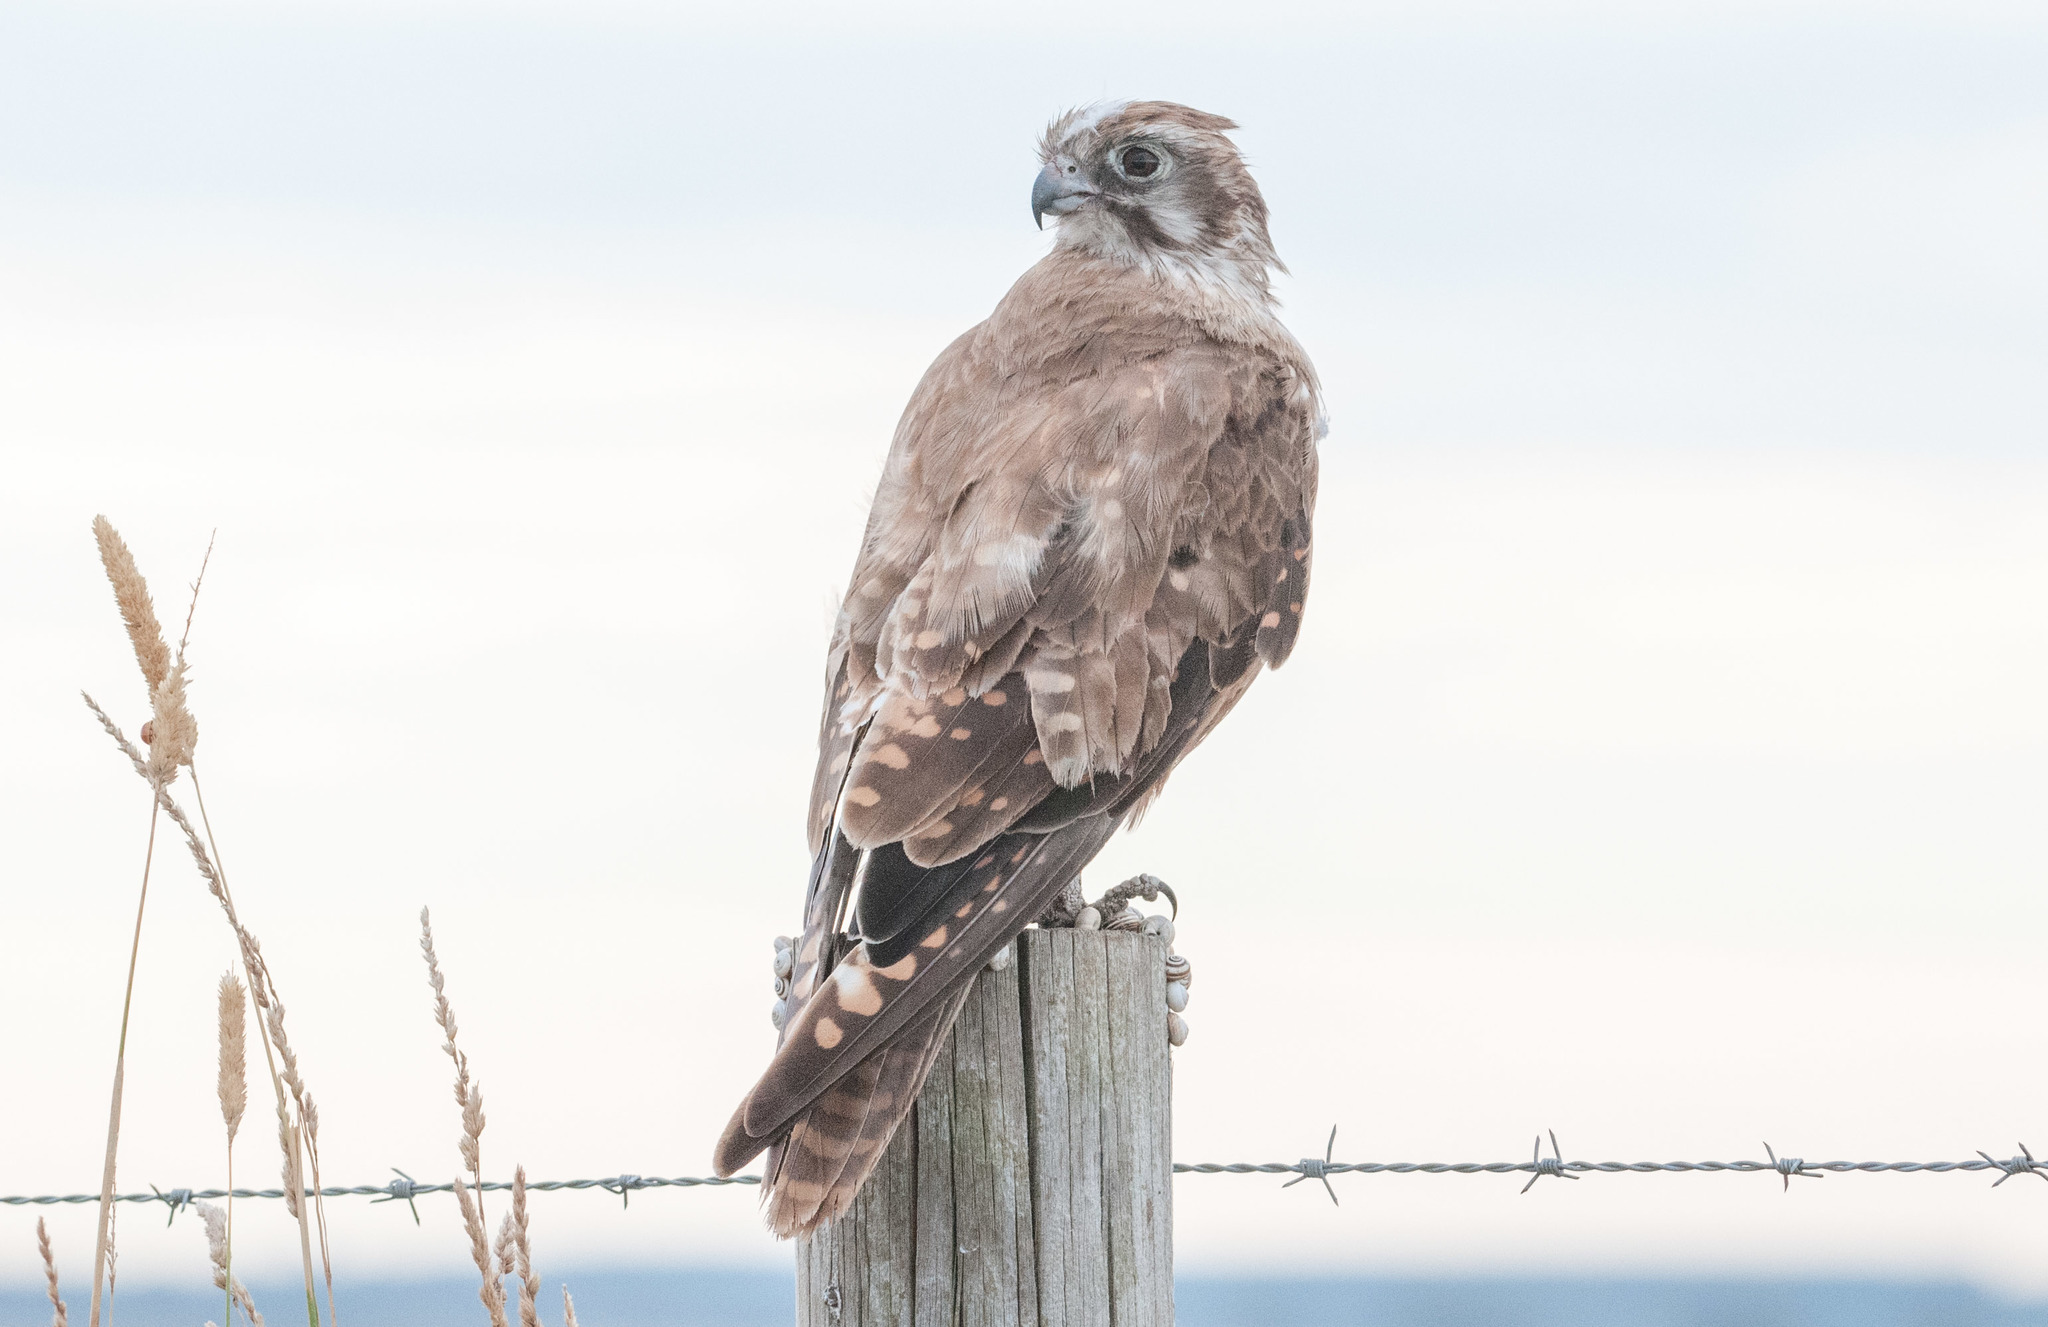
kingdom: Animalia
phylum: Chordata
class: Aves
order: Falconiformes
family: Falconidae
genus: Falco
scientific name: Falco berigora
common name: Brown falcon
